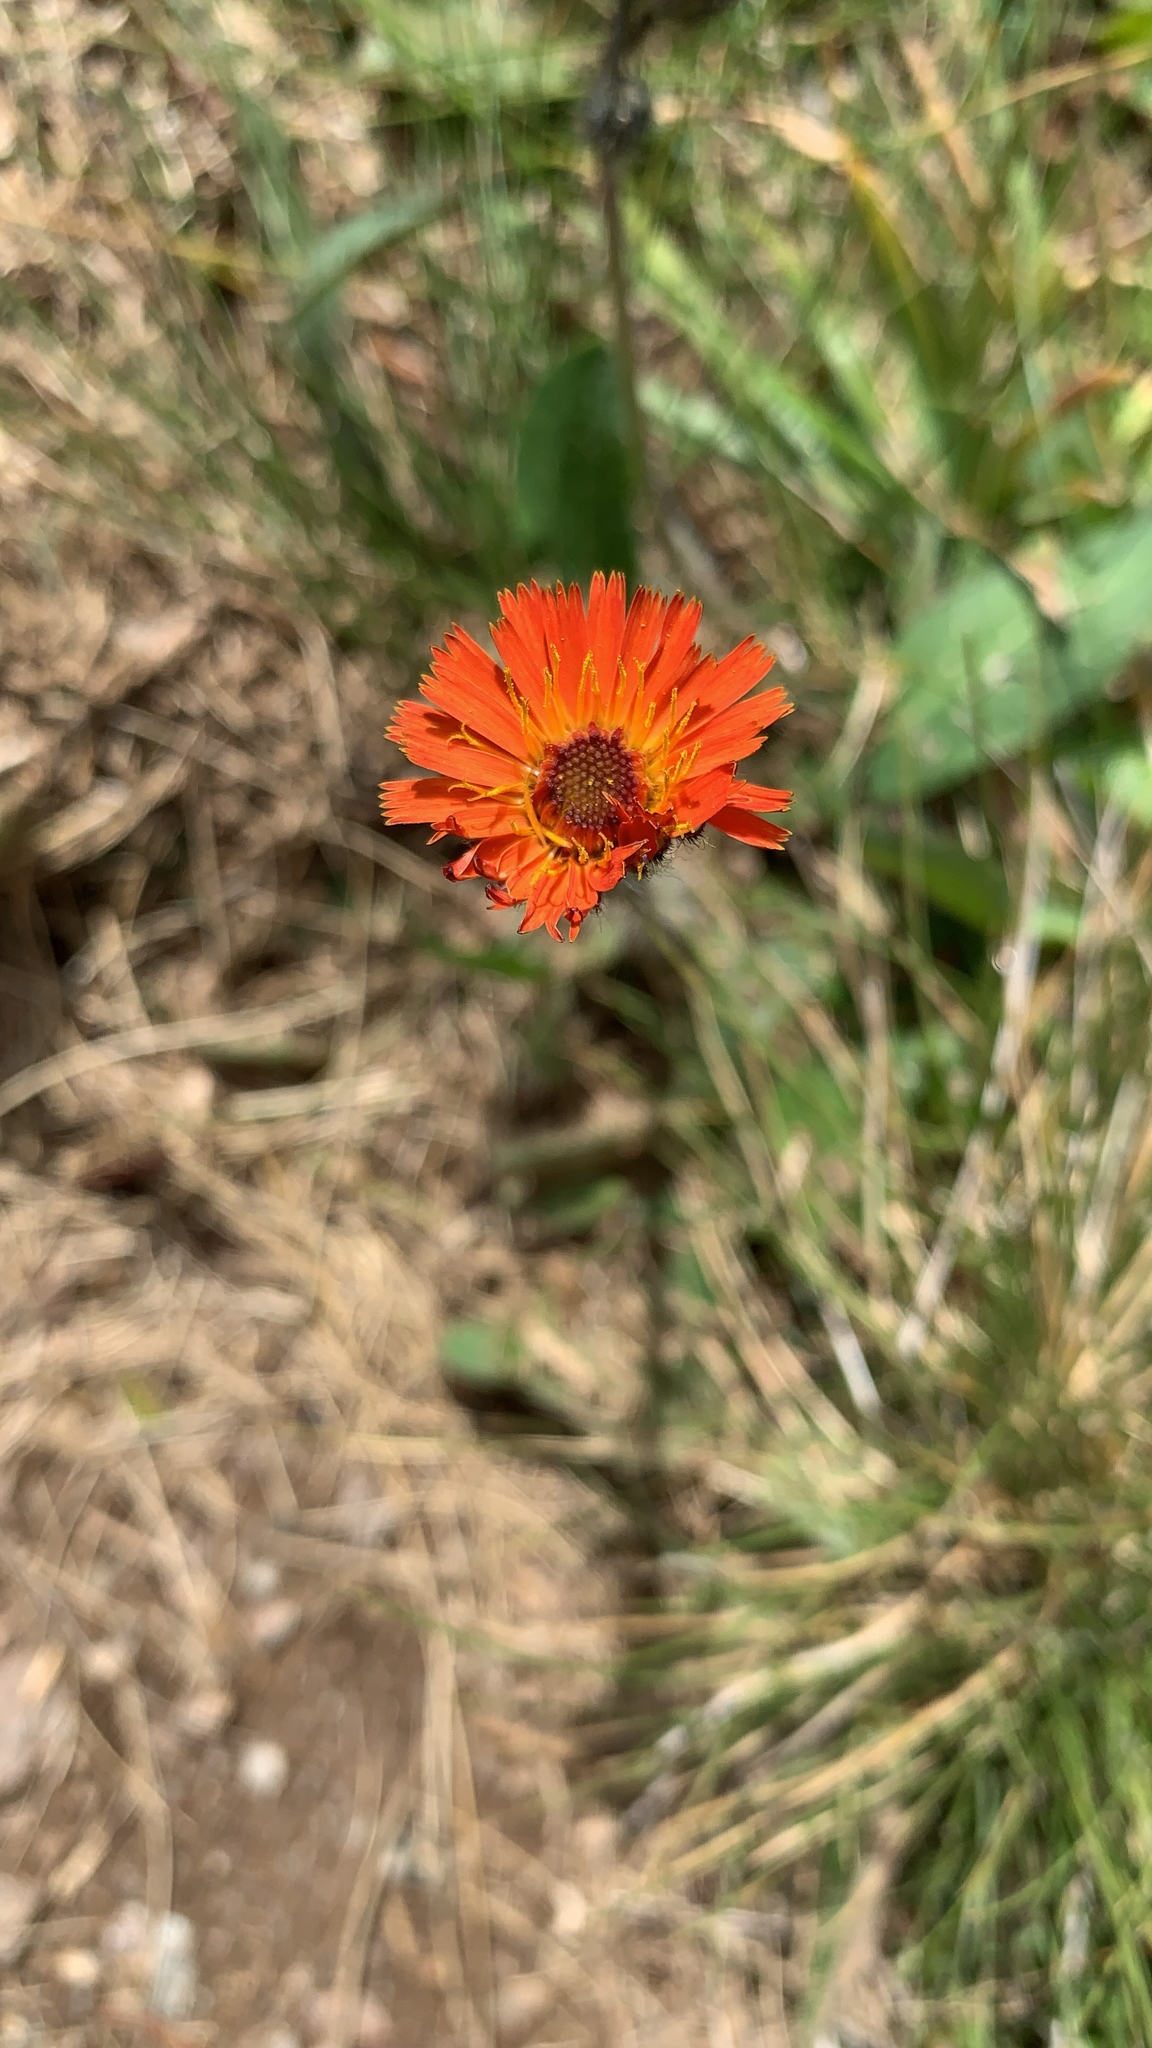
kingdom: Plantae
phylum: Tracheophyta
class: Magnoliopsida
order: Asterales
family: Asteraceae
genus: Pilosella
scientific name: Pilosella aurantiaca
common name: Fox-and-cubs
